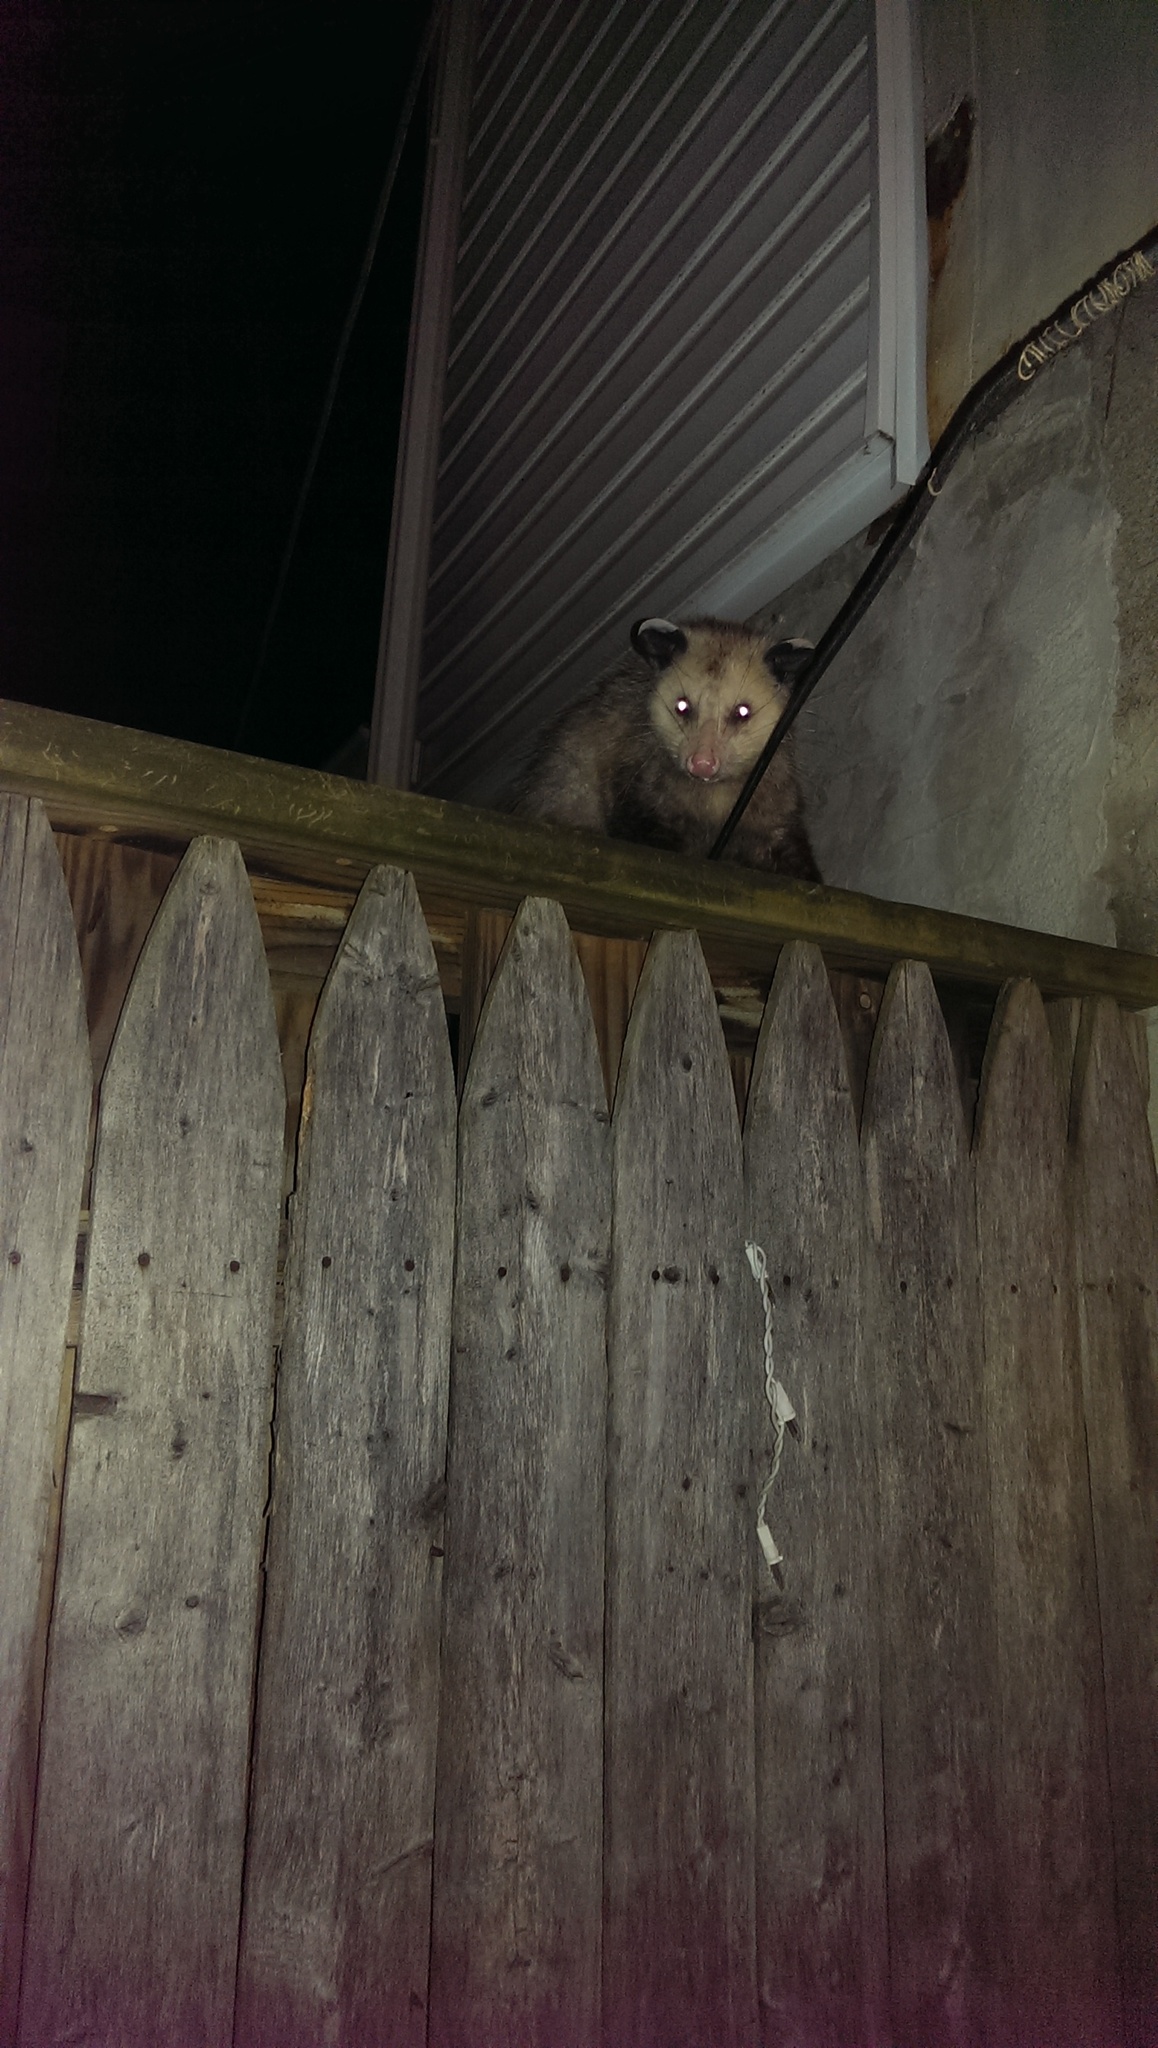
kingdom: Animalia
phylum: Chordata
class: Mammalia
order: Didelphimorphia
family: Didelphidae
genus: Didelphis
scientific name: Didelphis virginiana
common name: Virginia opossum
